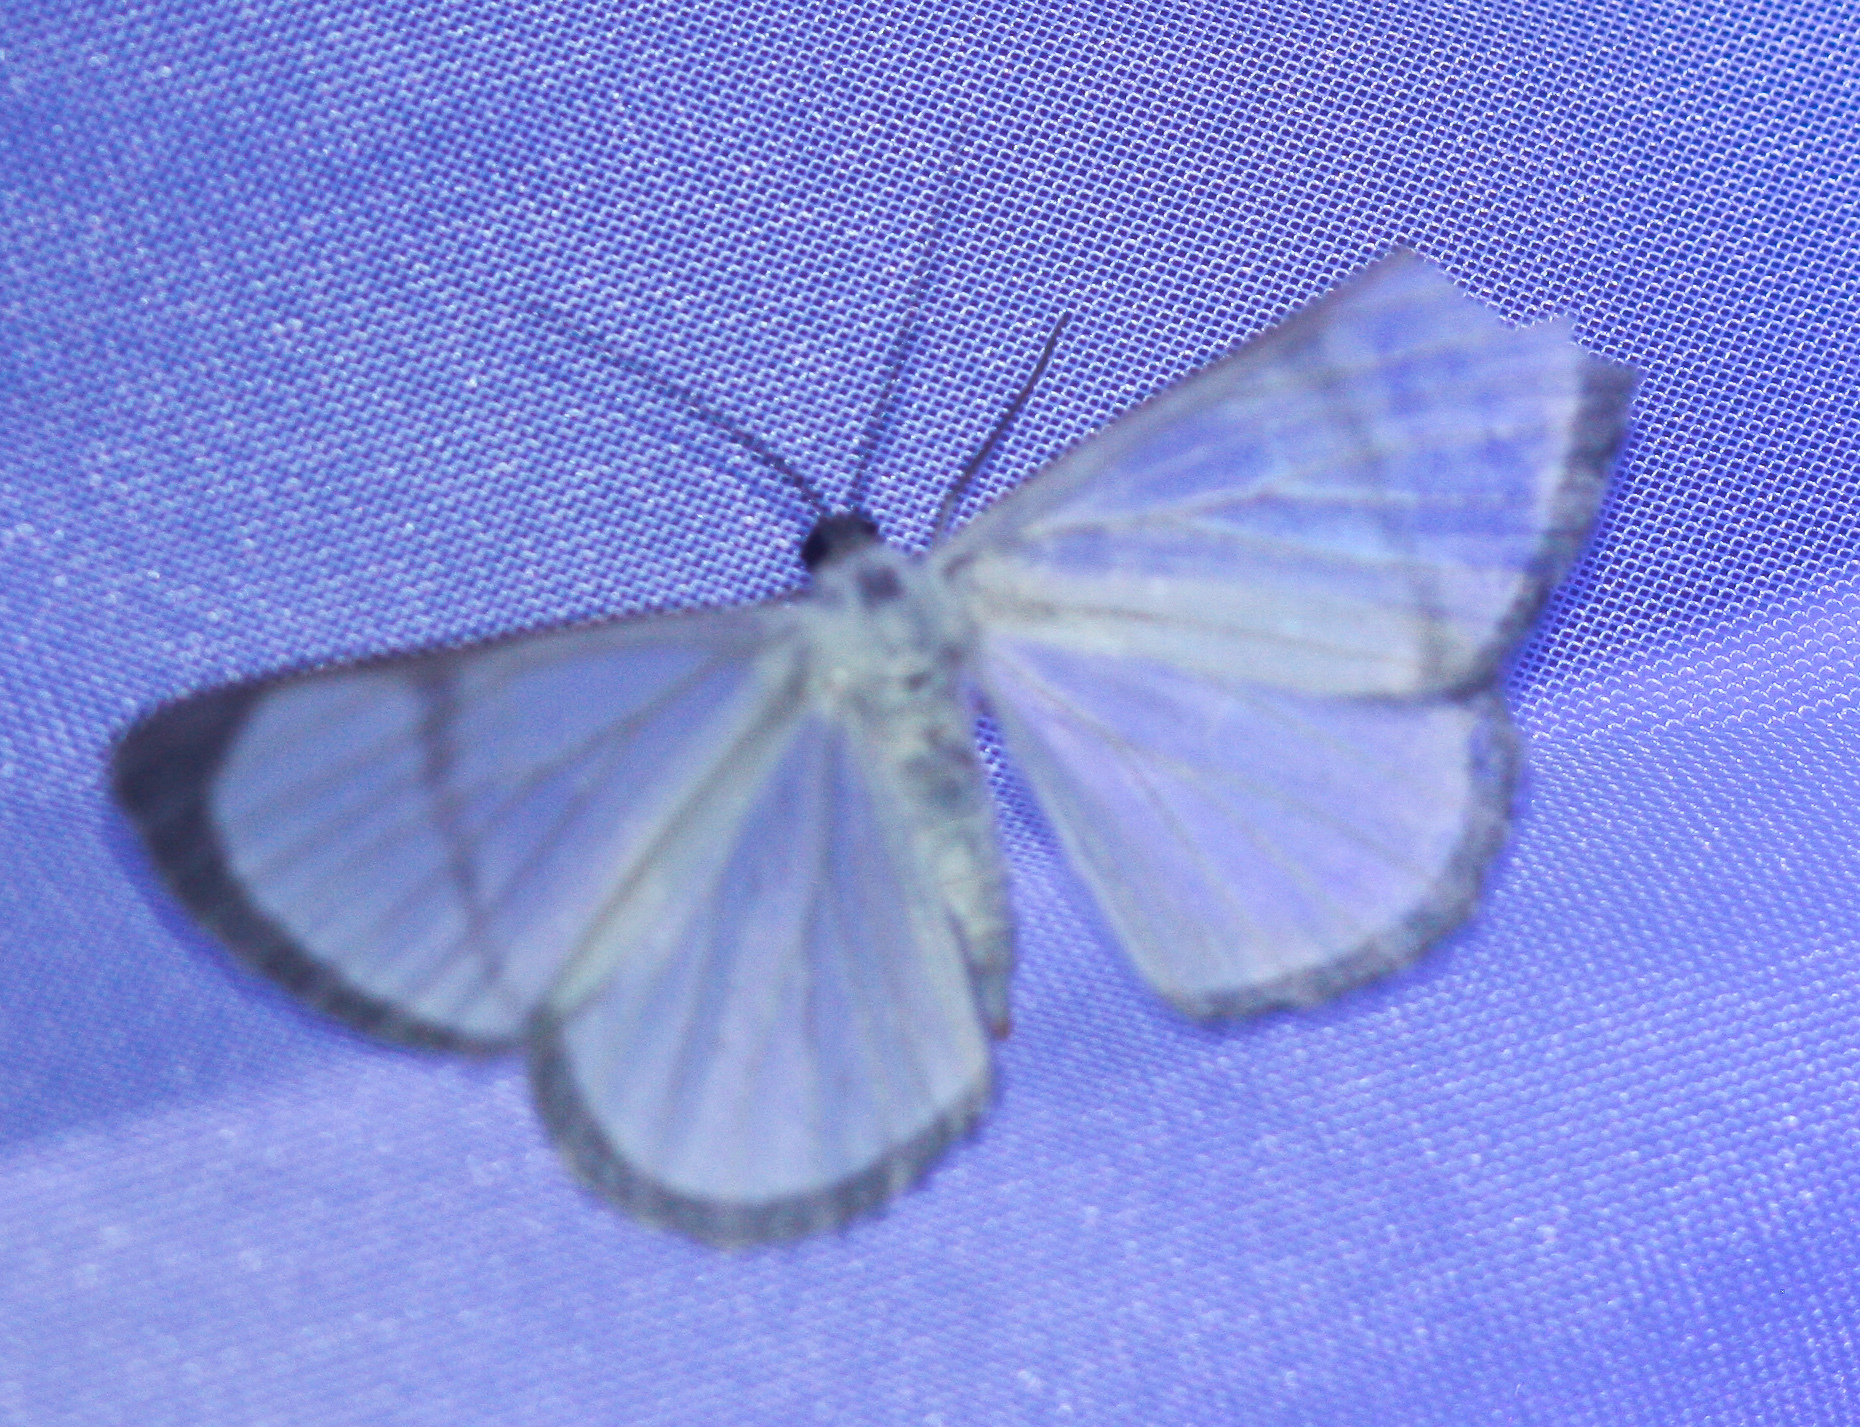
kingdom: Animalia
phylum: Arthropoda
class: Insecta
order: Lepidoptera
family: Geometridae
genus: Perigramma
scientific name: Perigramma albivena
